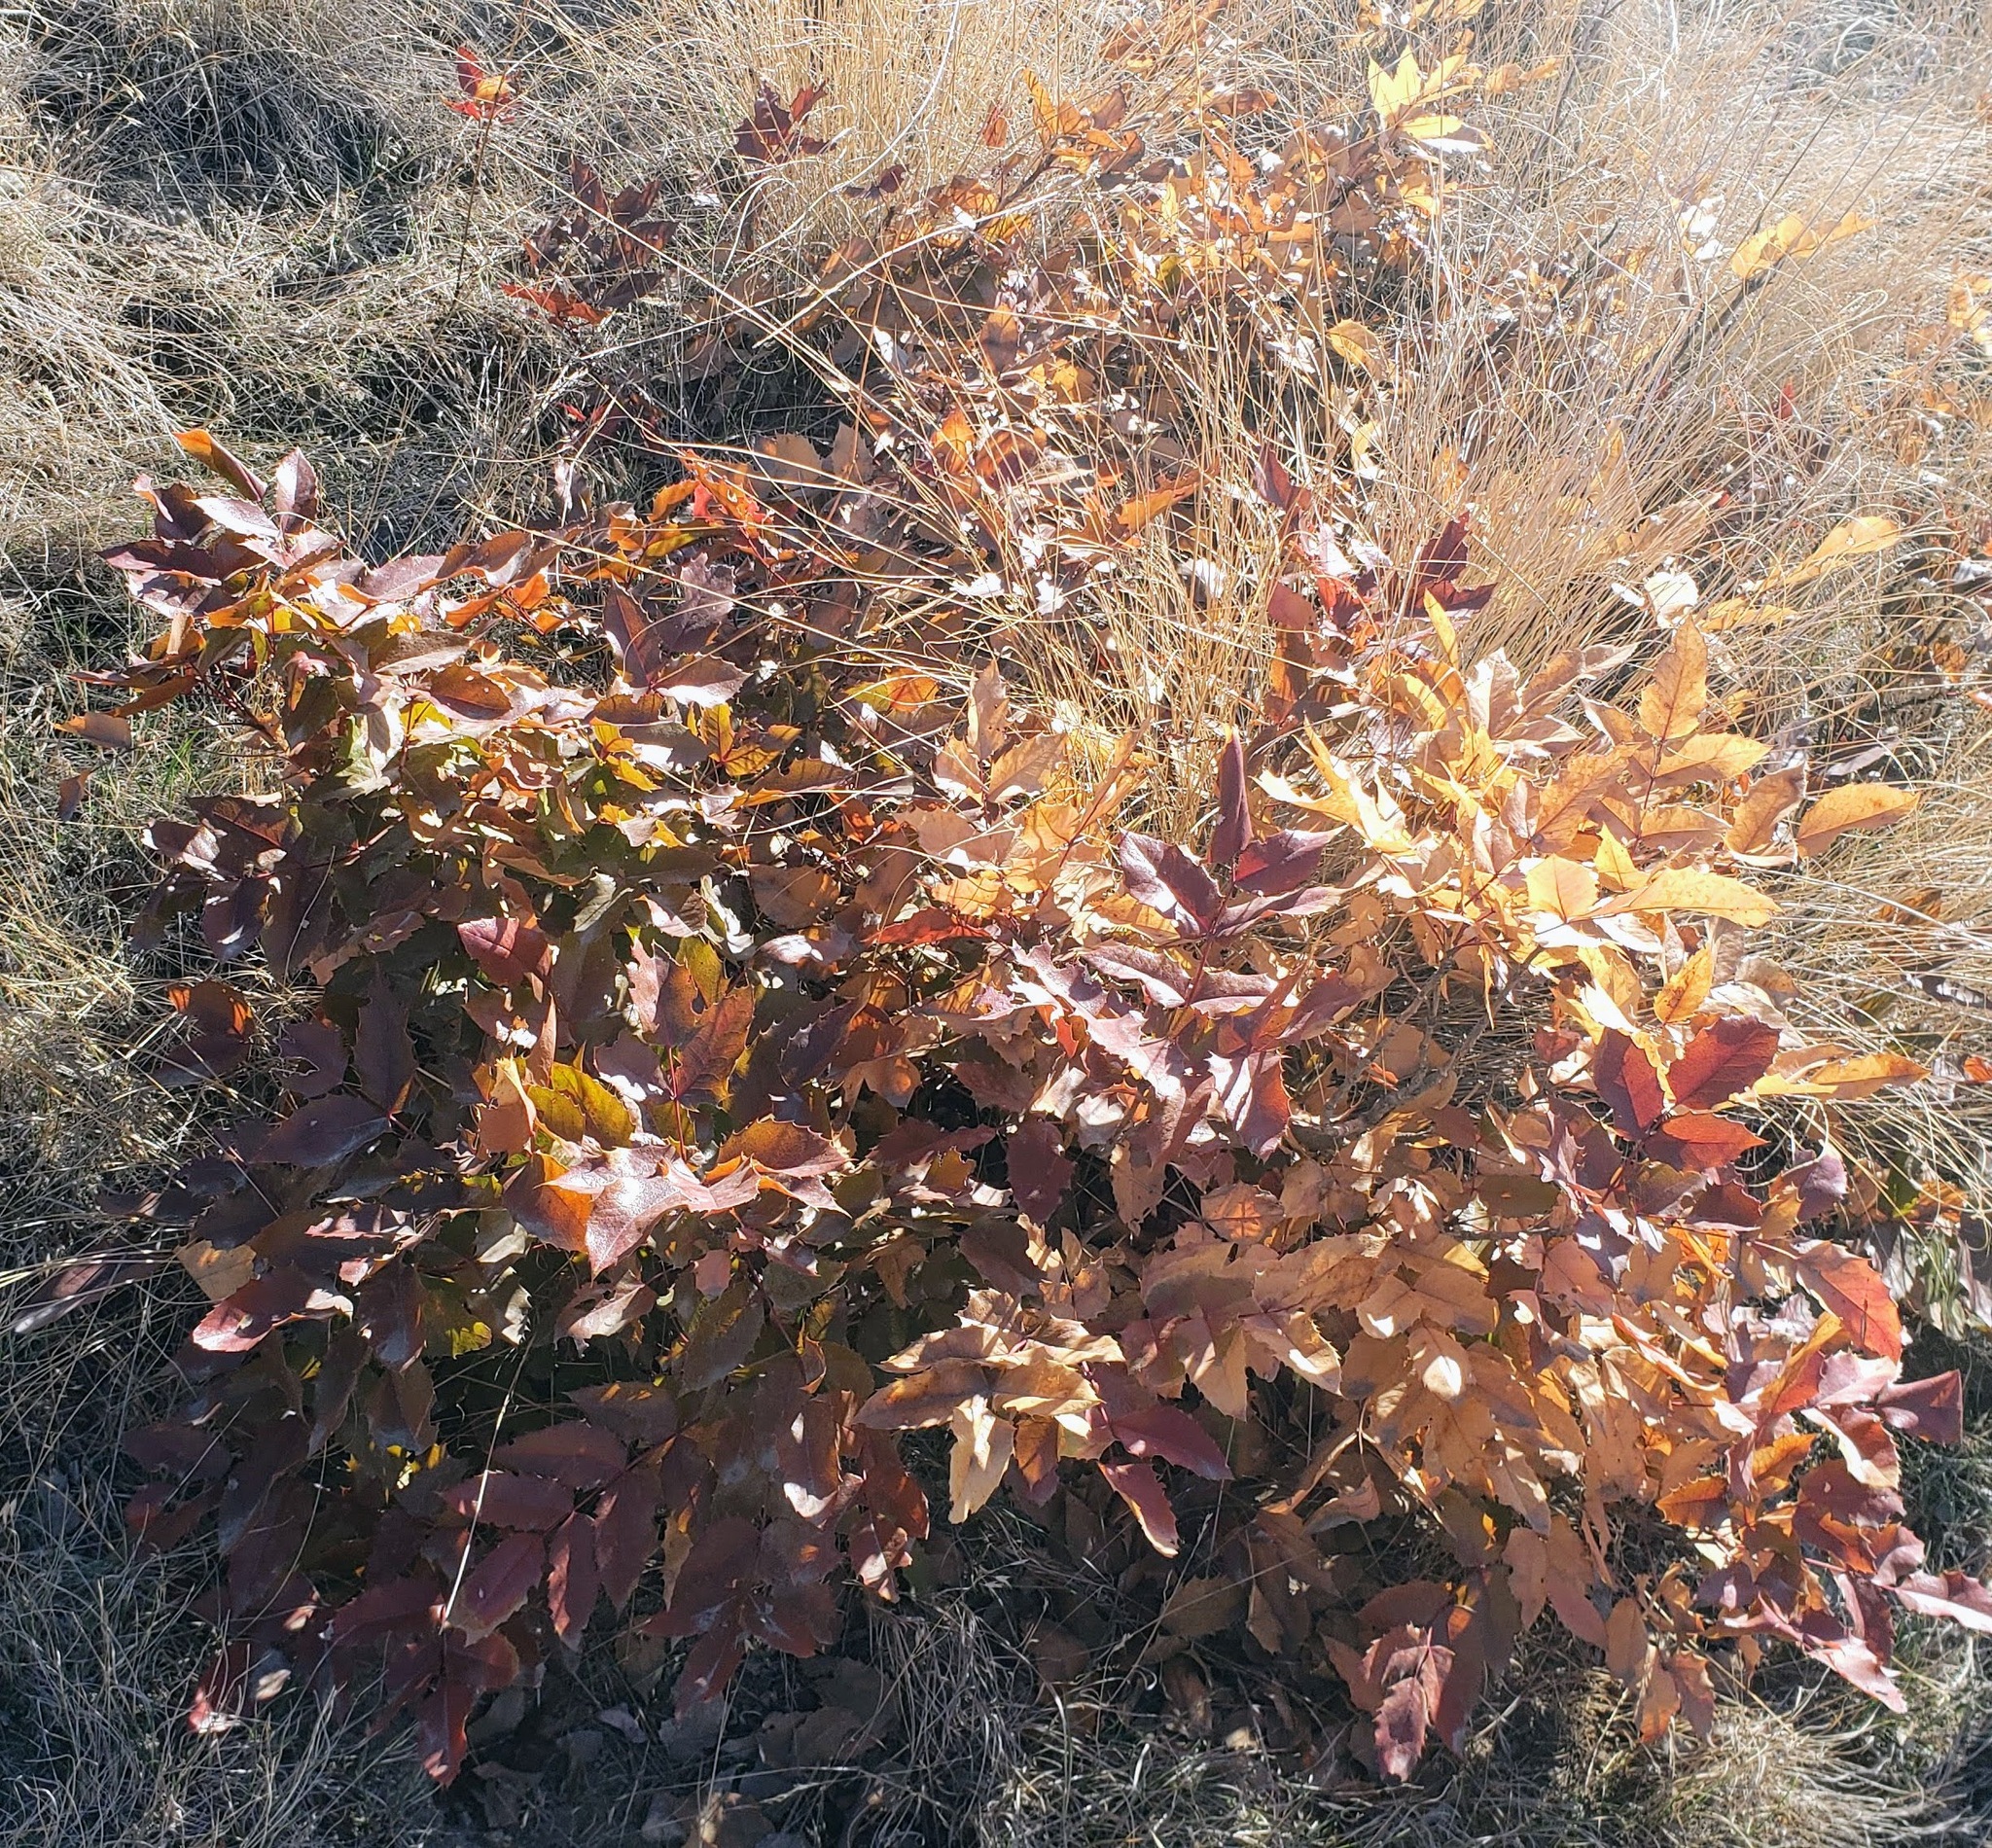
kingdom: Plantae
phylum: Tracheophyta
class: Magnoliopsida
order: Ranunculales
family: Berberidaceae
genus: Mahonia
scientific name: Mahonia aquifolium
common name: Oregon-grape
